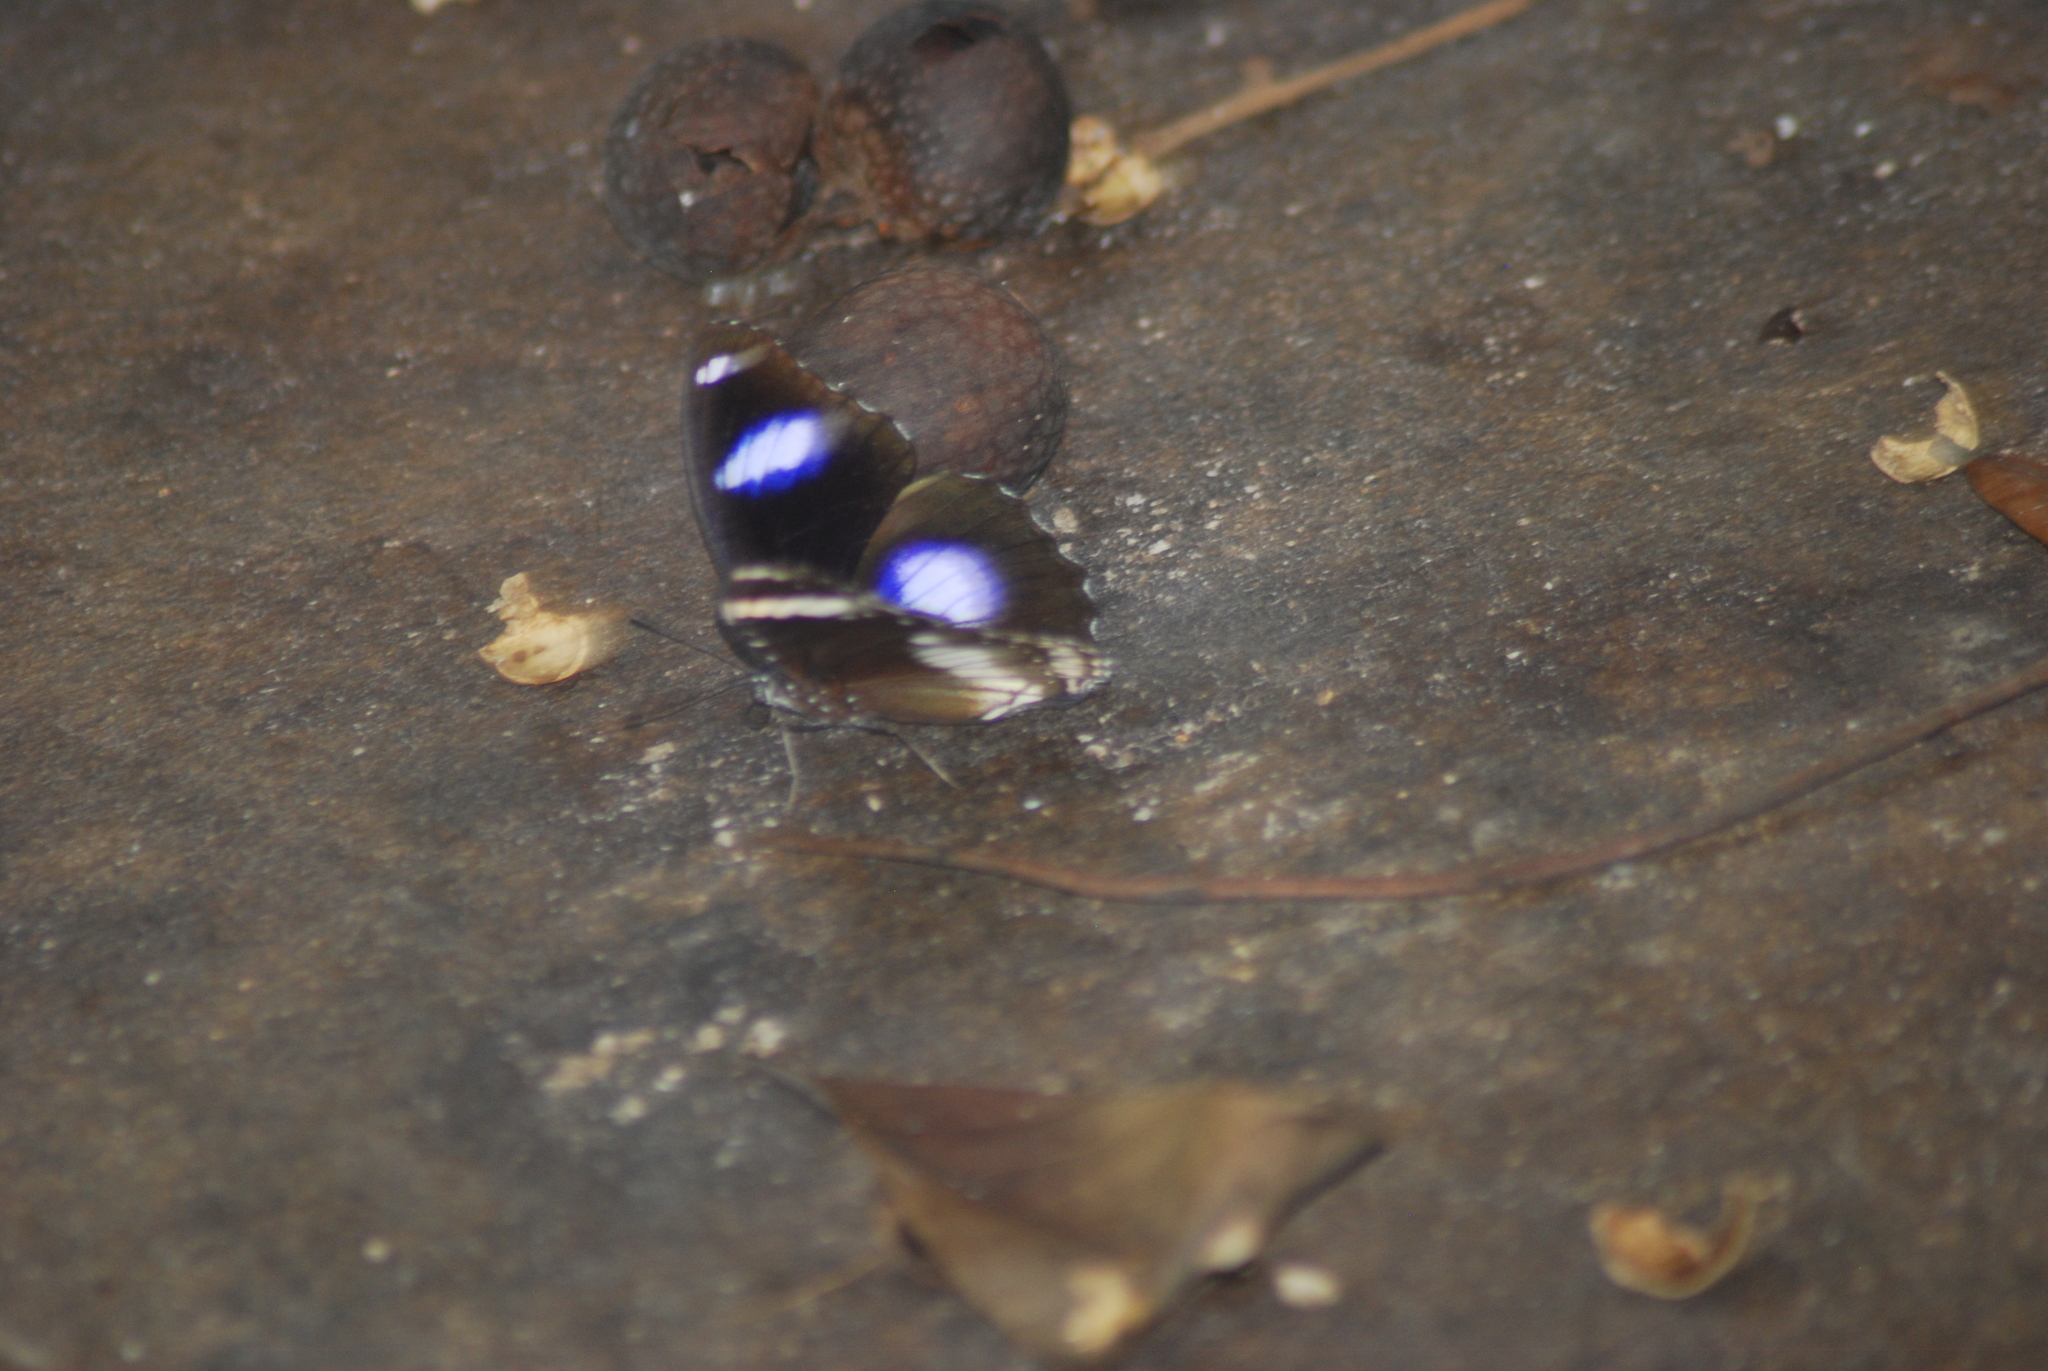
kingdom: Animalia
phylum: Arthropoda
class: Insecta
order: Lepidoptera
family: Nymphalidae
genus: Hypolimnas
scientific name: Hypolimnas bolina
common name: Great eggfly
